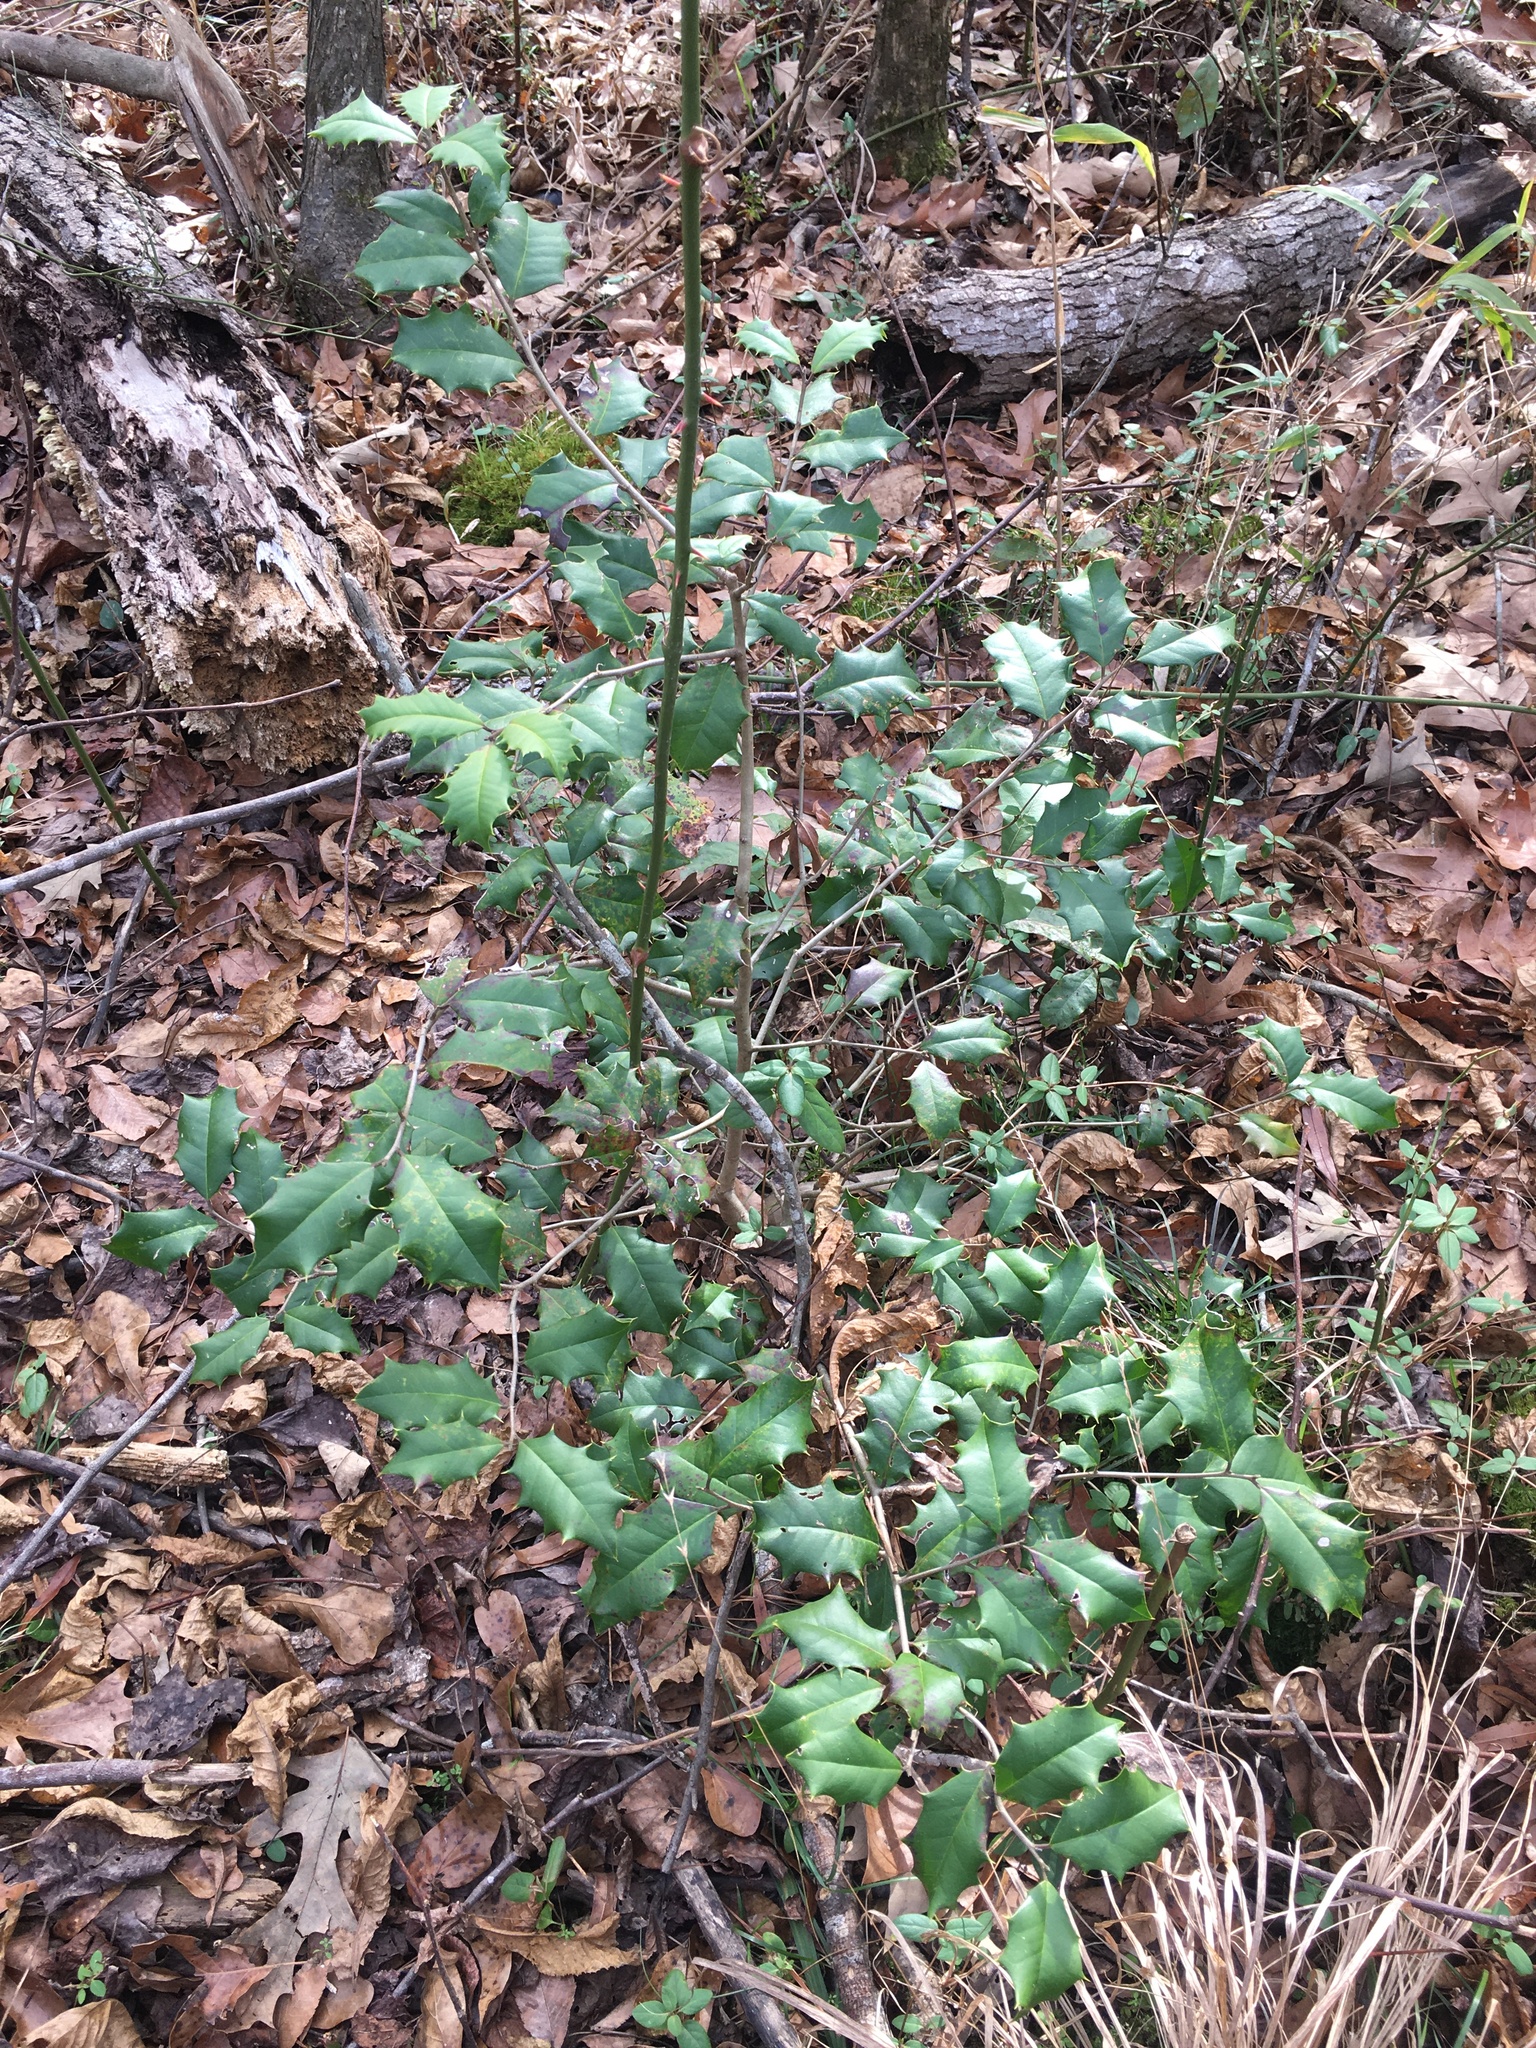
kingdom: Plantae
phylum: Tracheophyta
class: Magnoliopsida
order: Aquifoliales
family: Aquifoliaceae
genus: Ilex
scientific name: Ilex opaca
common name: American holly
